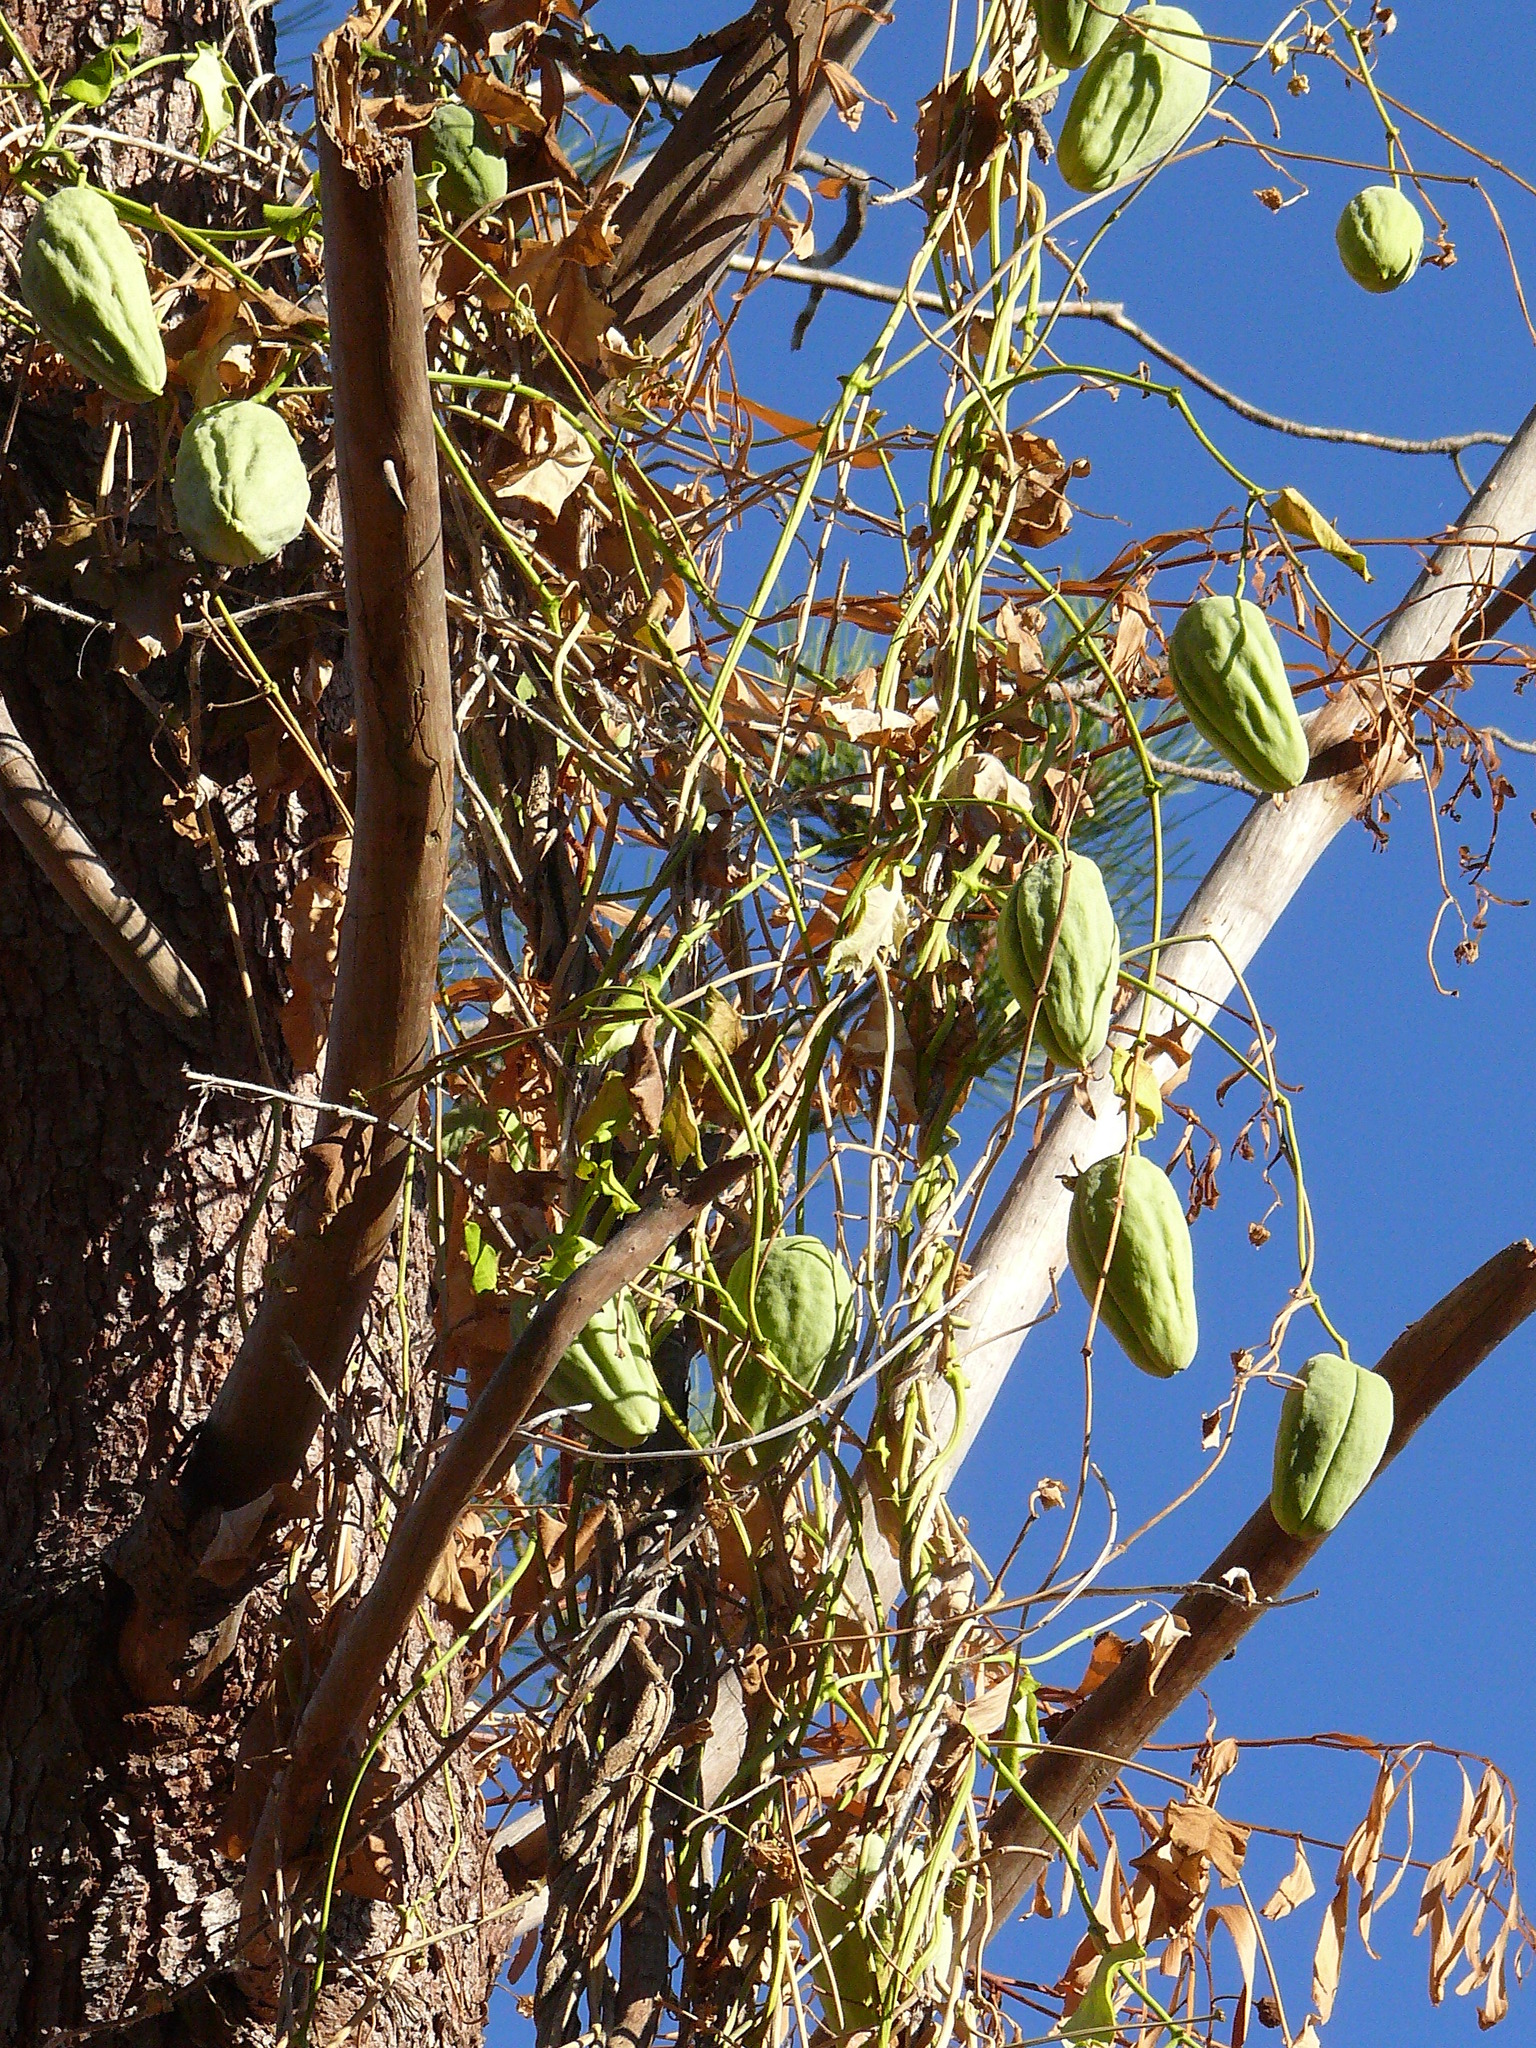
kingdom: Plantae
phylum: Tracheophyta
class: Magnoliopsida
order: Gentianales
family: Apocynaceae
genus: Araujia
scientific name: Araujia sericifera
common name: White bladderflower
